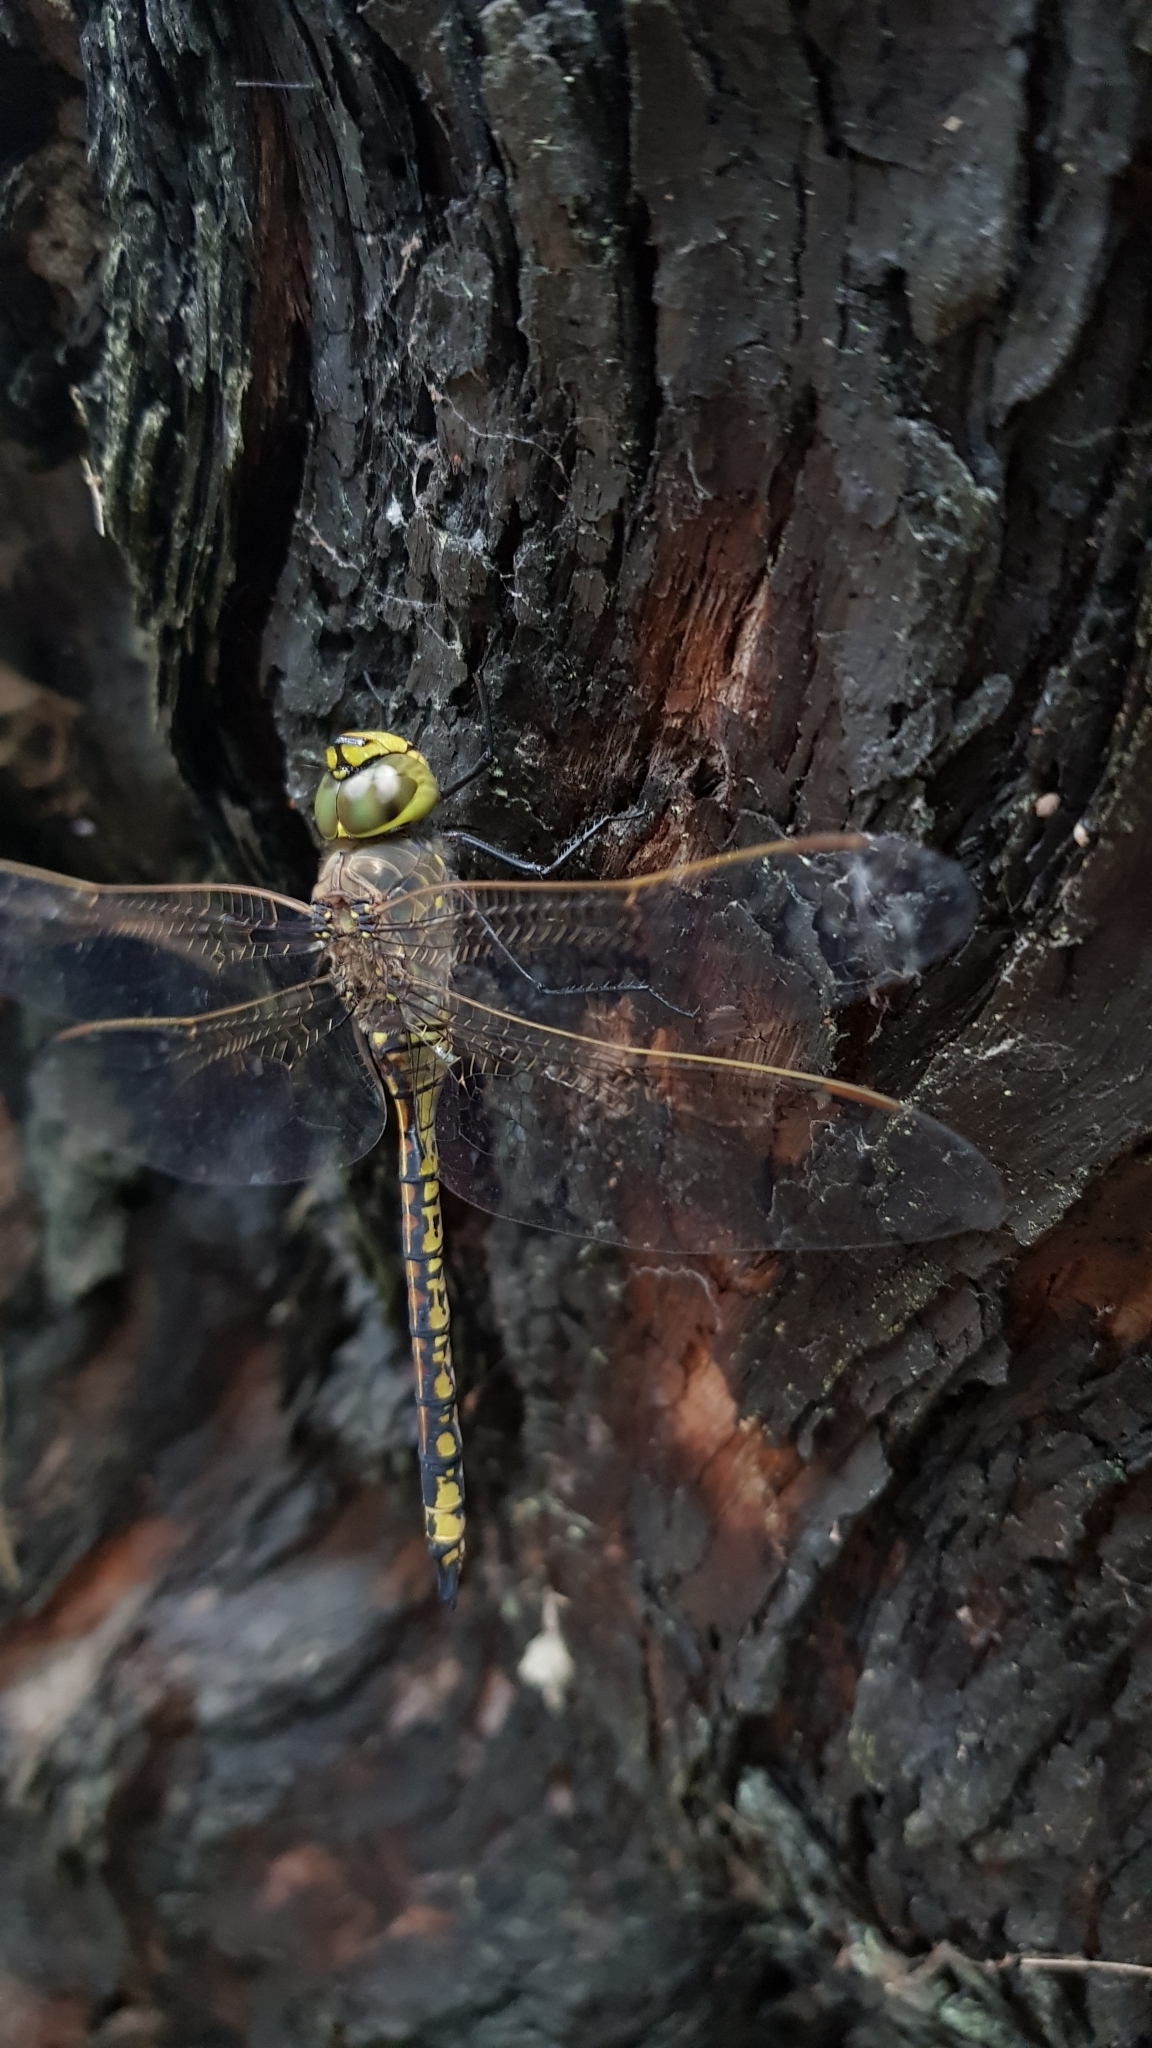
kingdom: Animalia
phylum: Arthropoda
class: Insecta
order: Odonata
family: Aeshnidae
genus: Anax
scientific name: Anax papuensis
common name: Australian emperor
